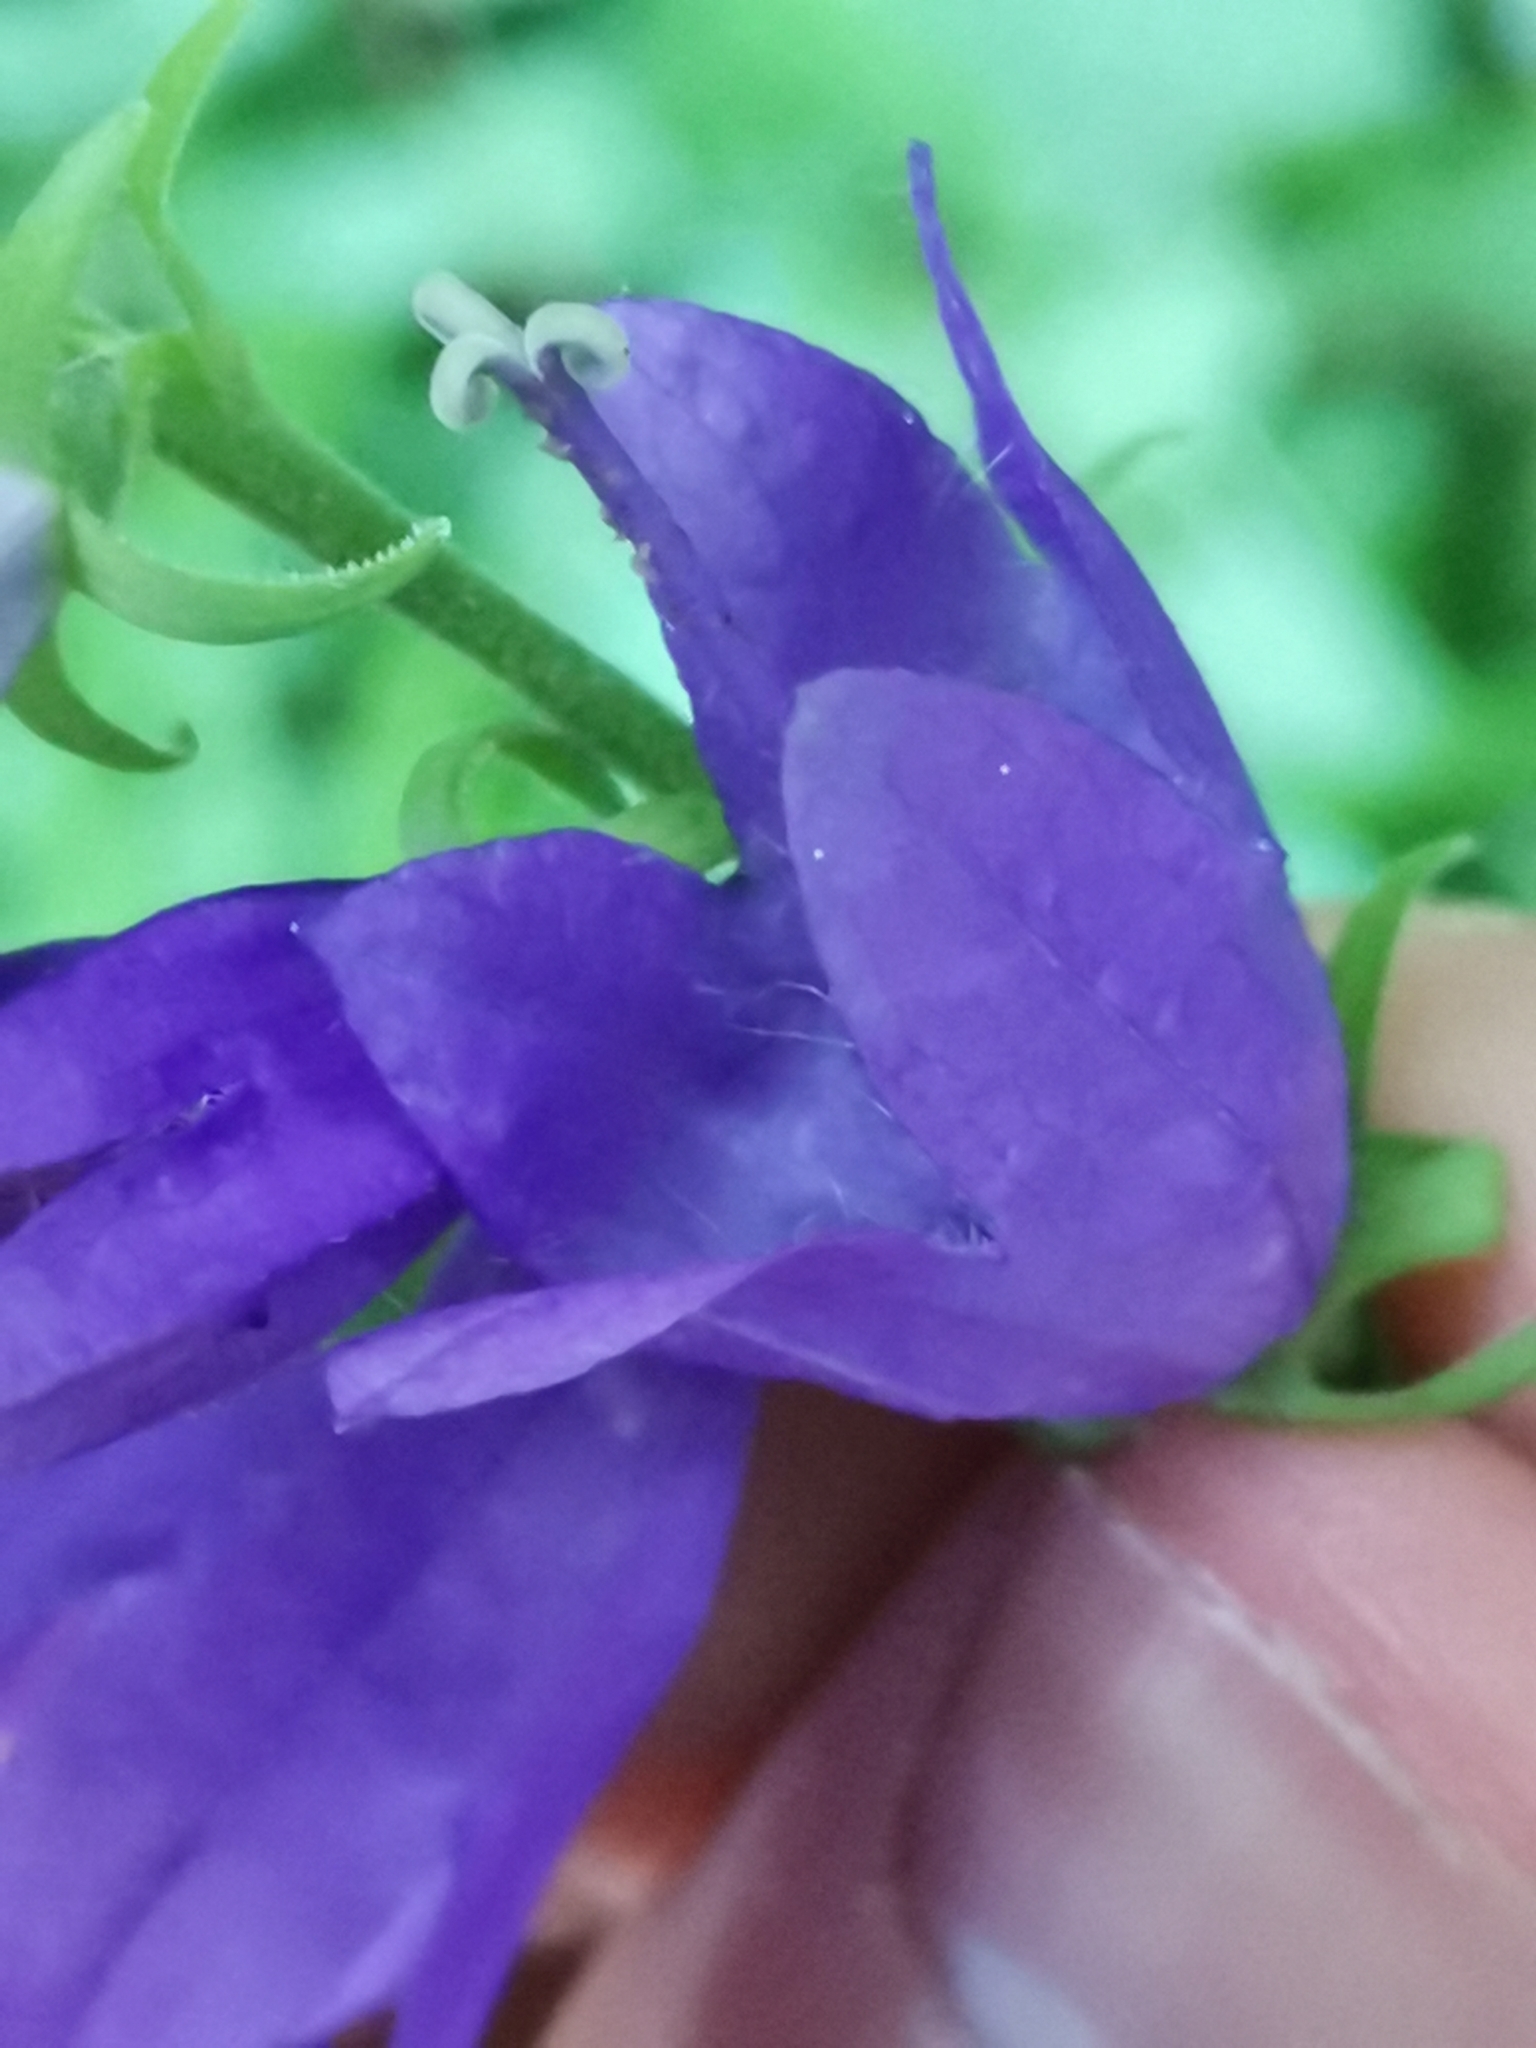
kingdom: Plantae
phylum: Tracheophyta
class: Magnoliopsida
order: Asterales
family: Campanulaceae
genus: Campanula
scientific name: Campanula rapunculoides
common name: Creeping bellflower
